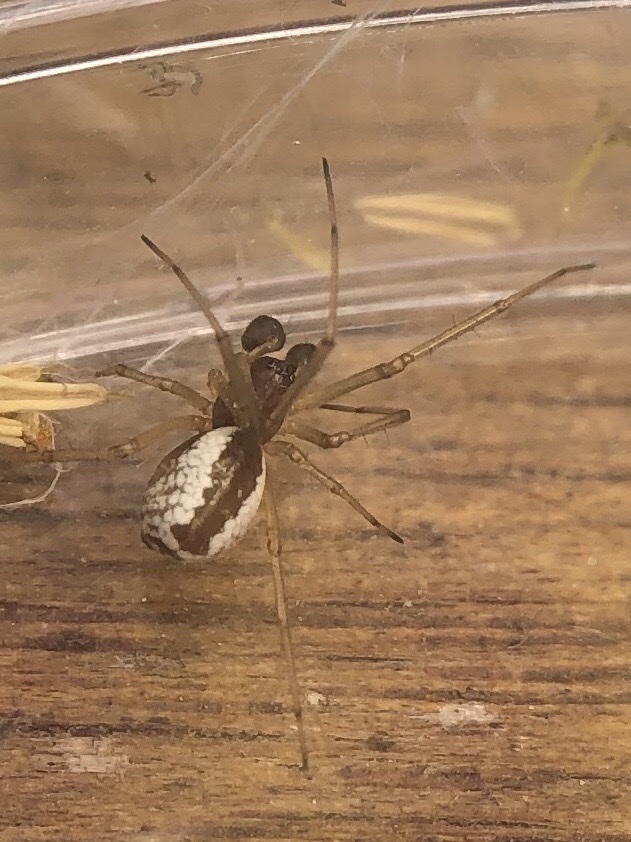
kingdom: Animalia
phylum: Arthropoda
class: Arachnida
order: Araneae
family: Linyphiidae
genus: Frontinellina
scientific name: Frontinellina frutetorum
